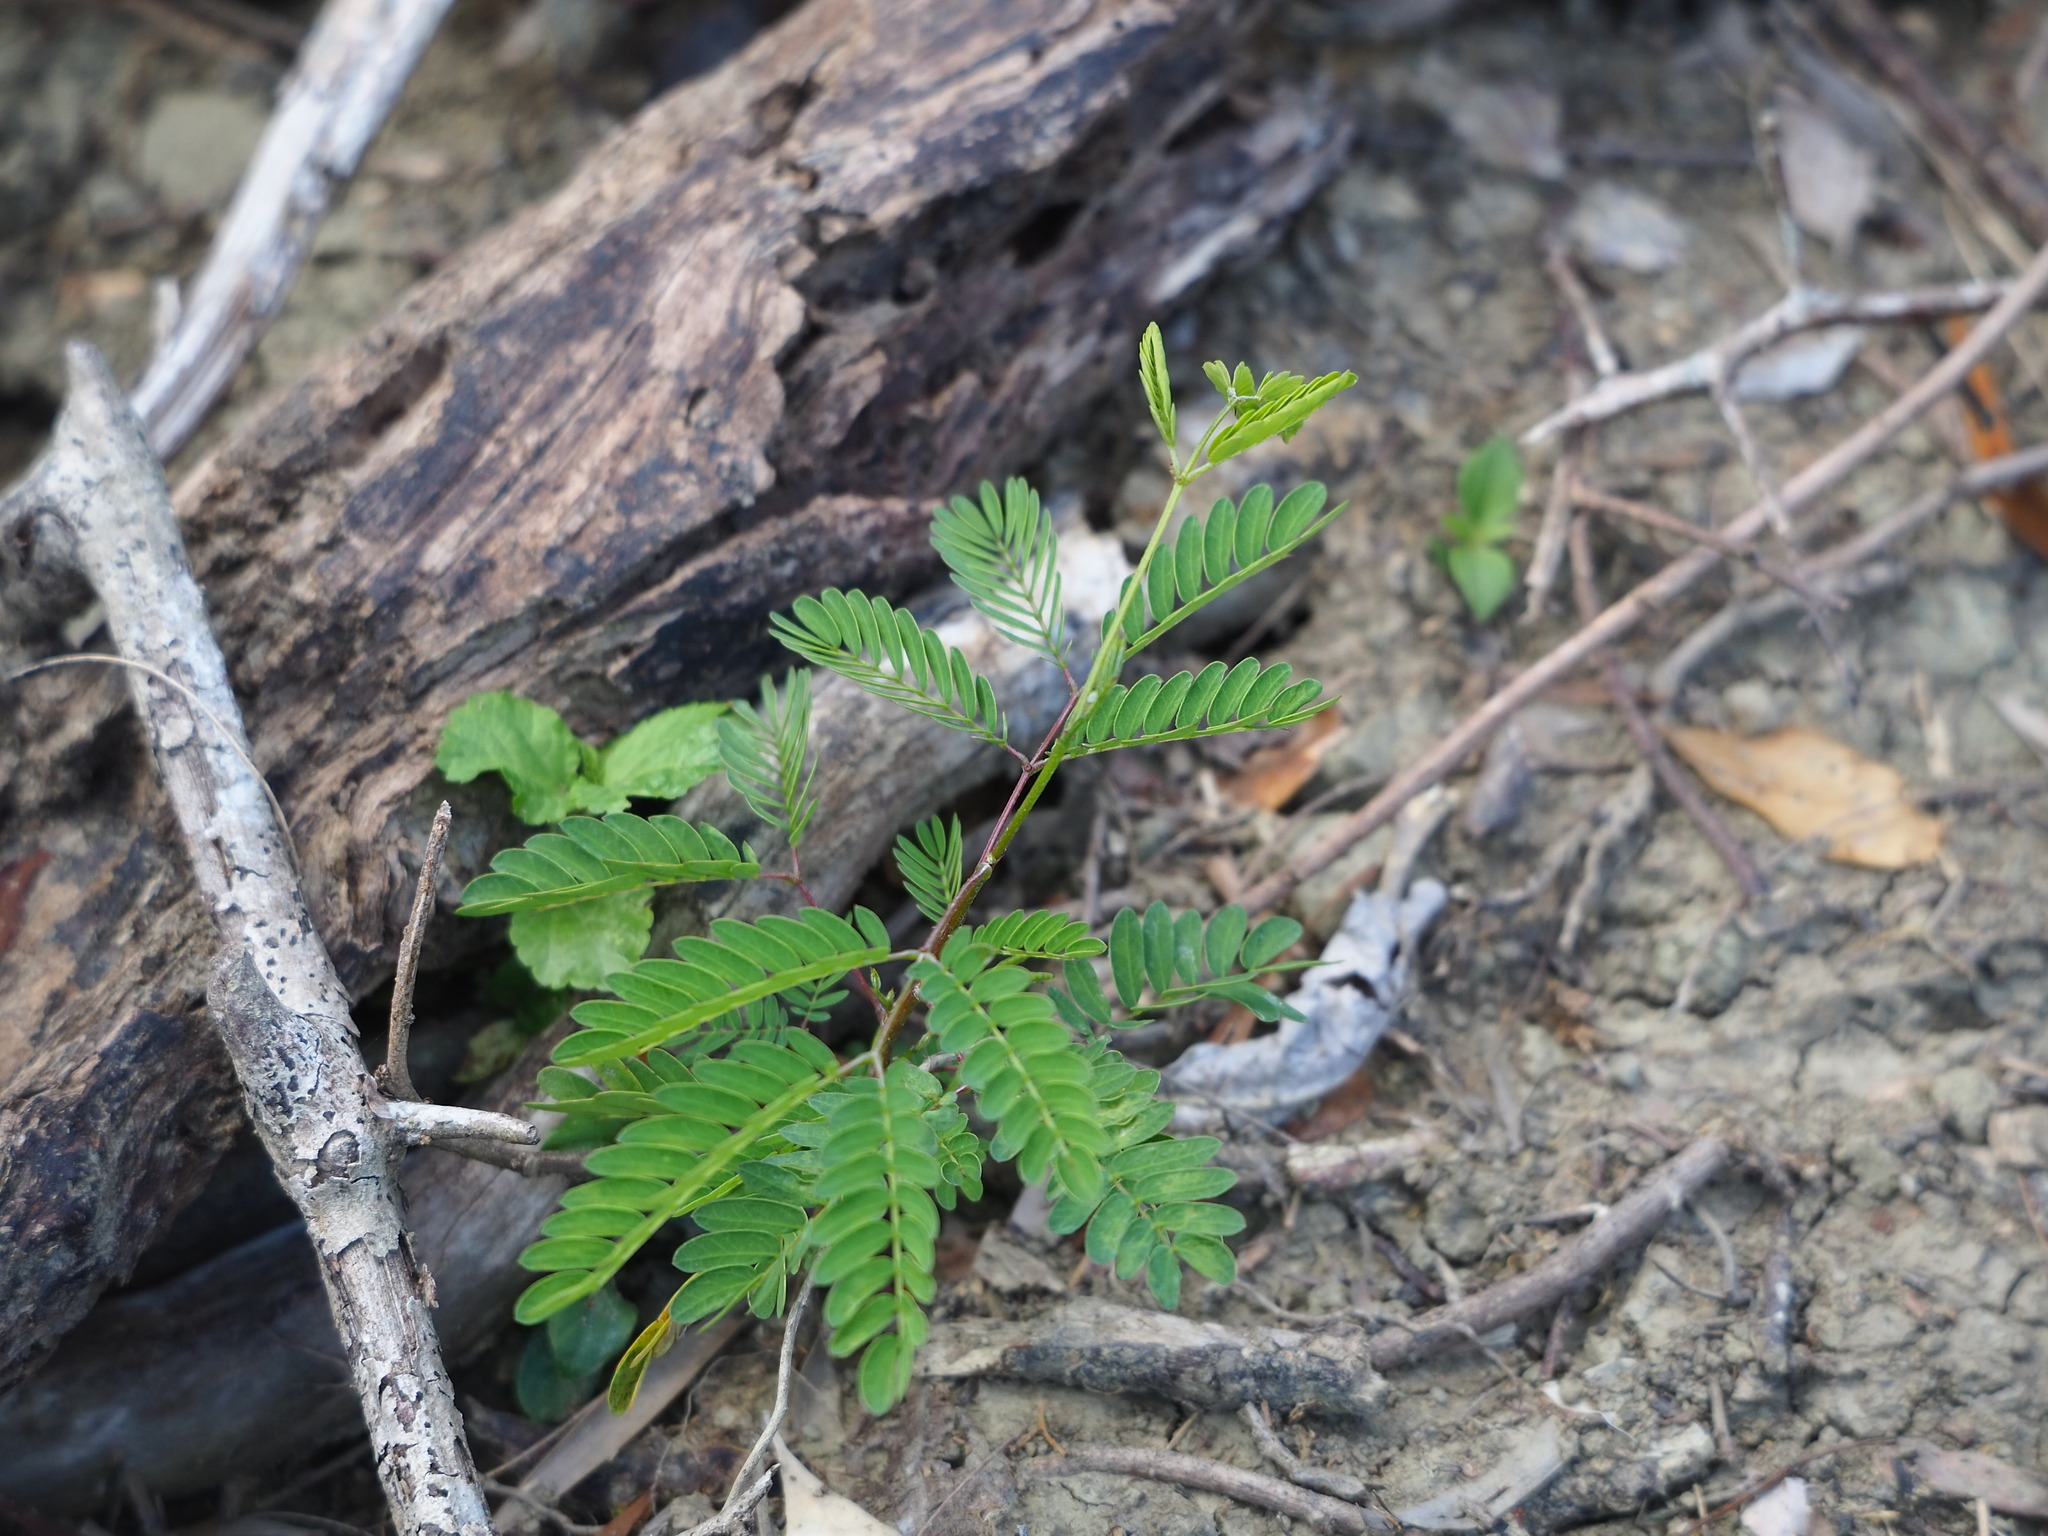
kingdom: Plantae
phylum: Tracheophyta
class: Magnoliopsida
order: Fabales
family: Fabaceae
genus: Leucaena
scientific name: Leucaena leucocephala
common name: White leadtree
